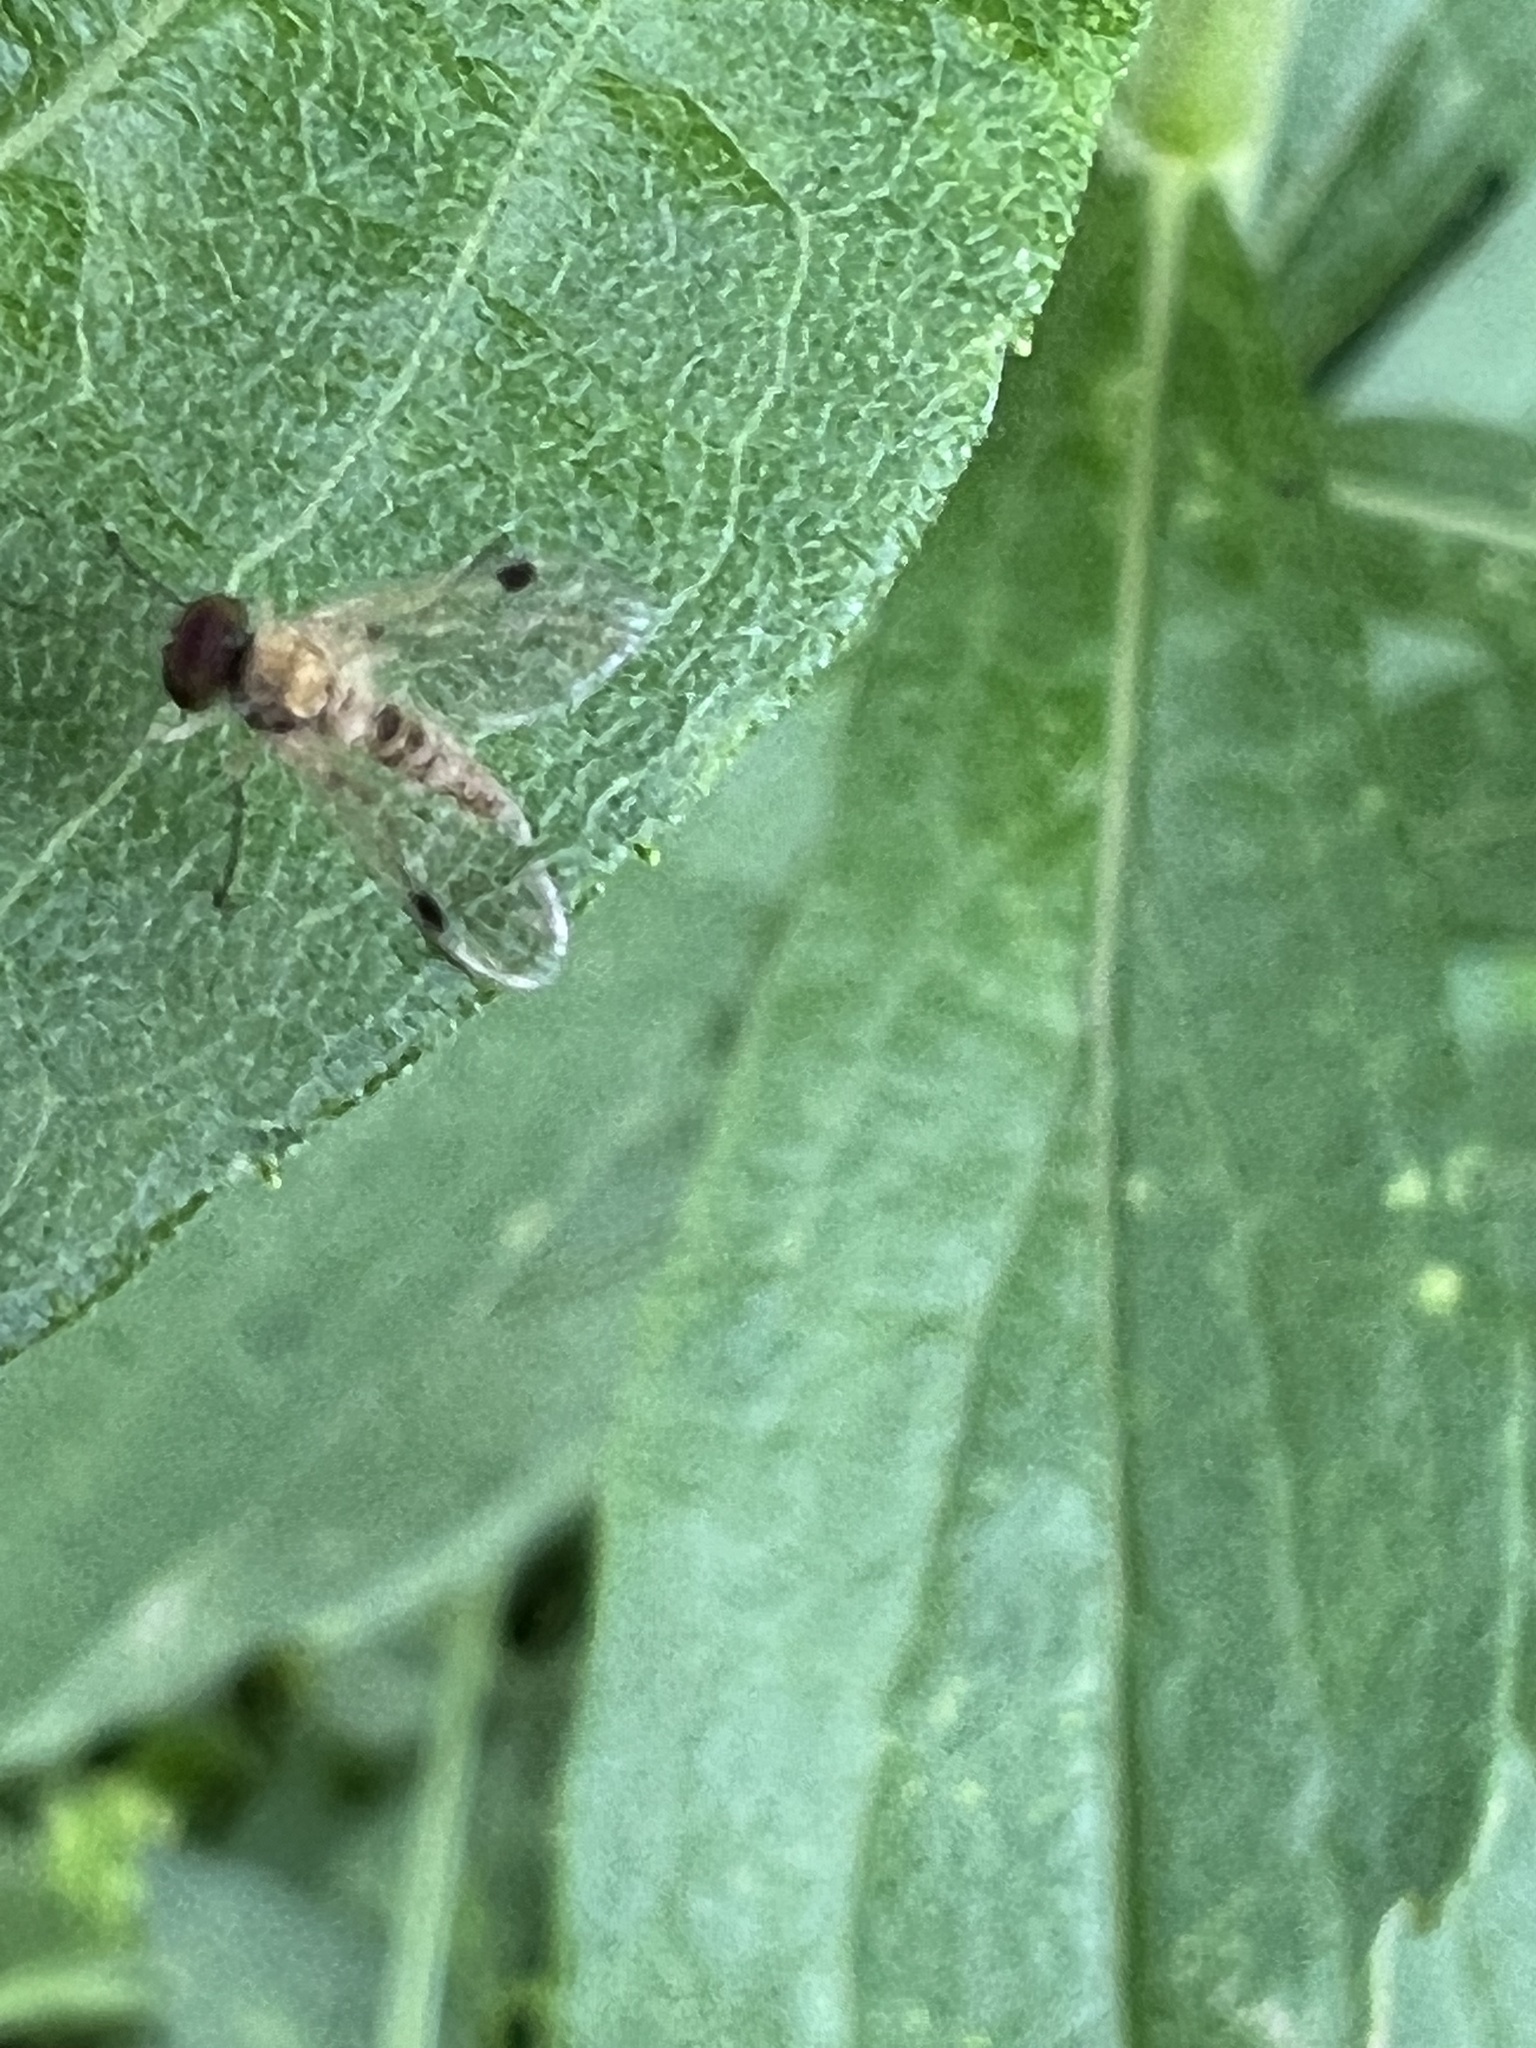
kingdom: Animalia
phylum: Arthropoda
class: Insecta
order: Diptera
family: Rhagionidae
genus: Chrysopilus
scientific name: Chrysopilus modestus
